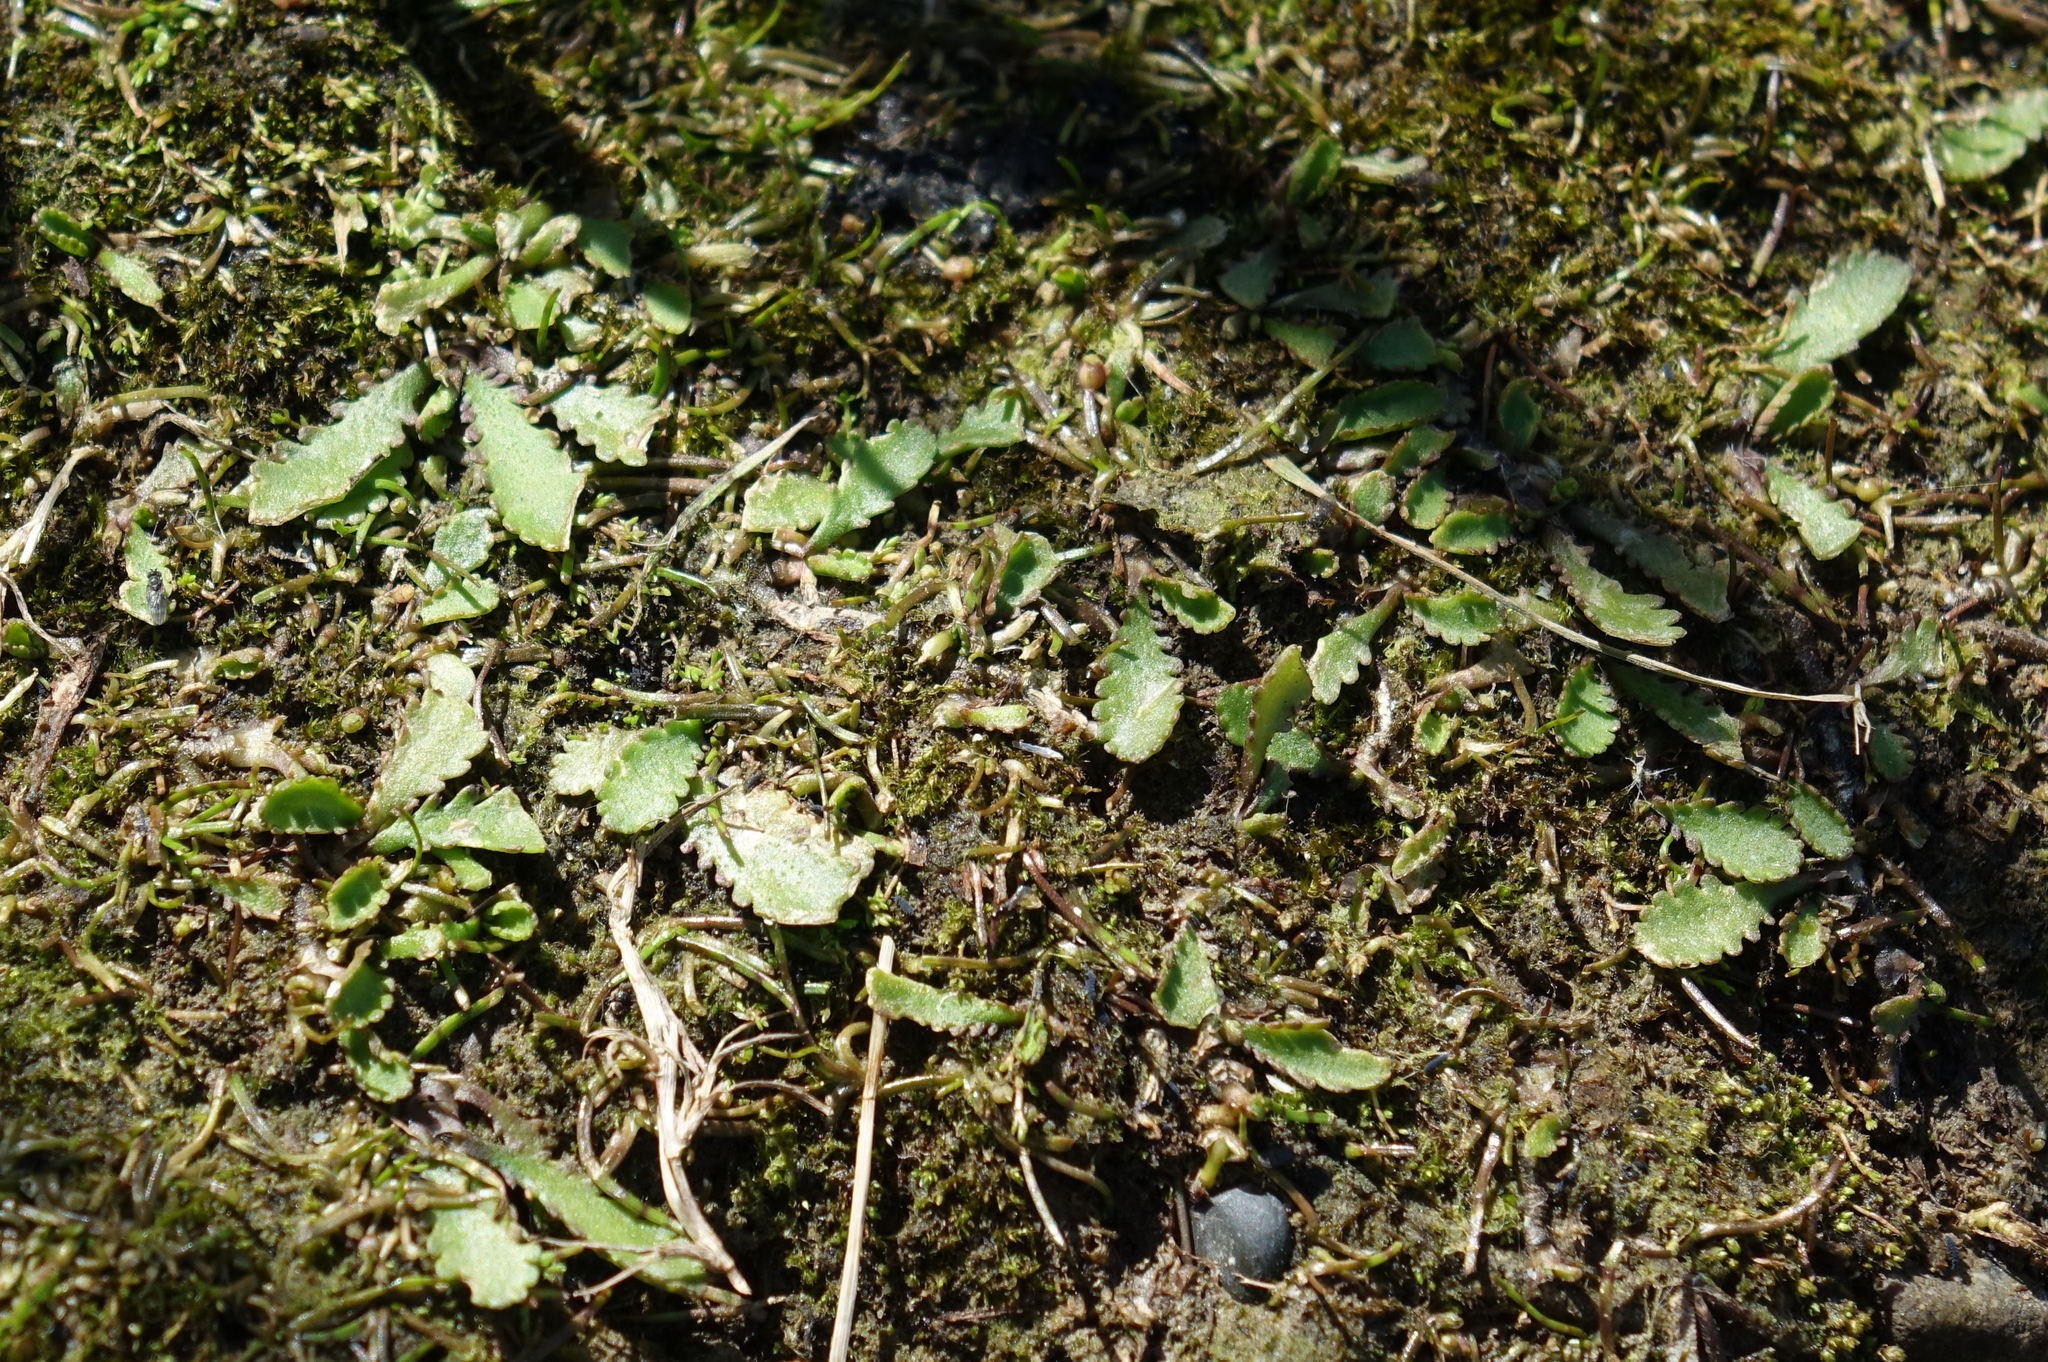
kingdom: Plantae
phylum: Tracheophyta
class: Magnoliopsida
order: Asterales
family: Asteraceae
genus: Leptinella
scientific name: Leptinella dioica
